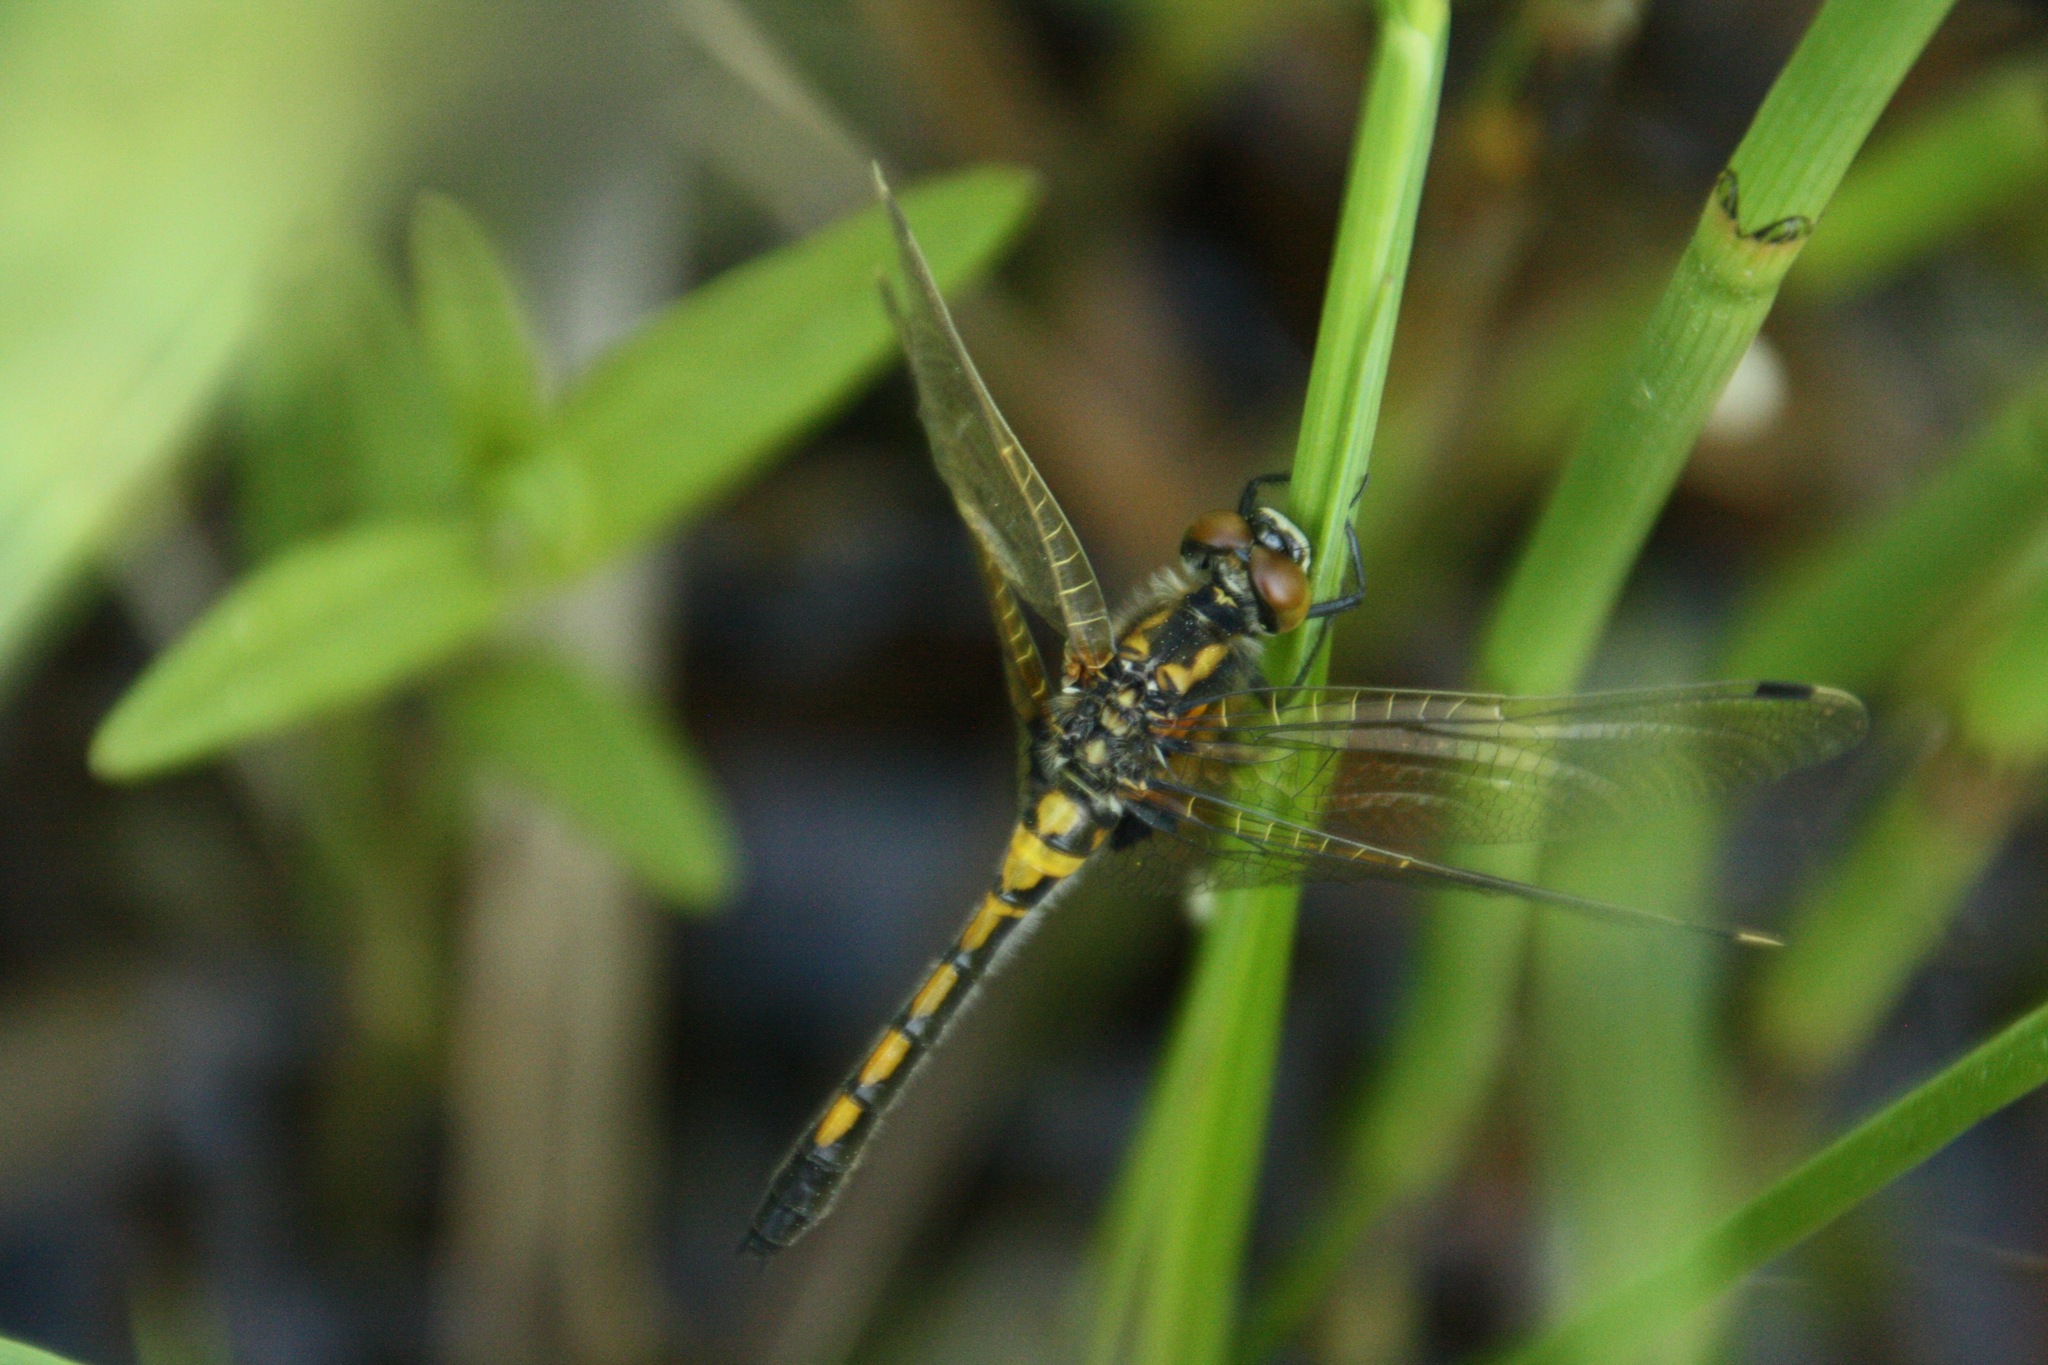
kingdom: Animalia
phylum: Arthropoda
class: Insecta
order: Odonata
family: Libellulidae
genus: Leucorrhinia
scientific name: Leucorrhinia rubicunda
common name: Ruby whiteface
